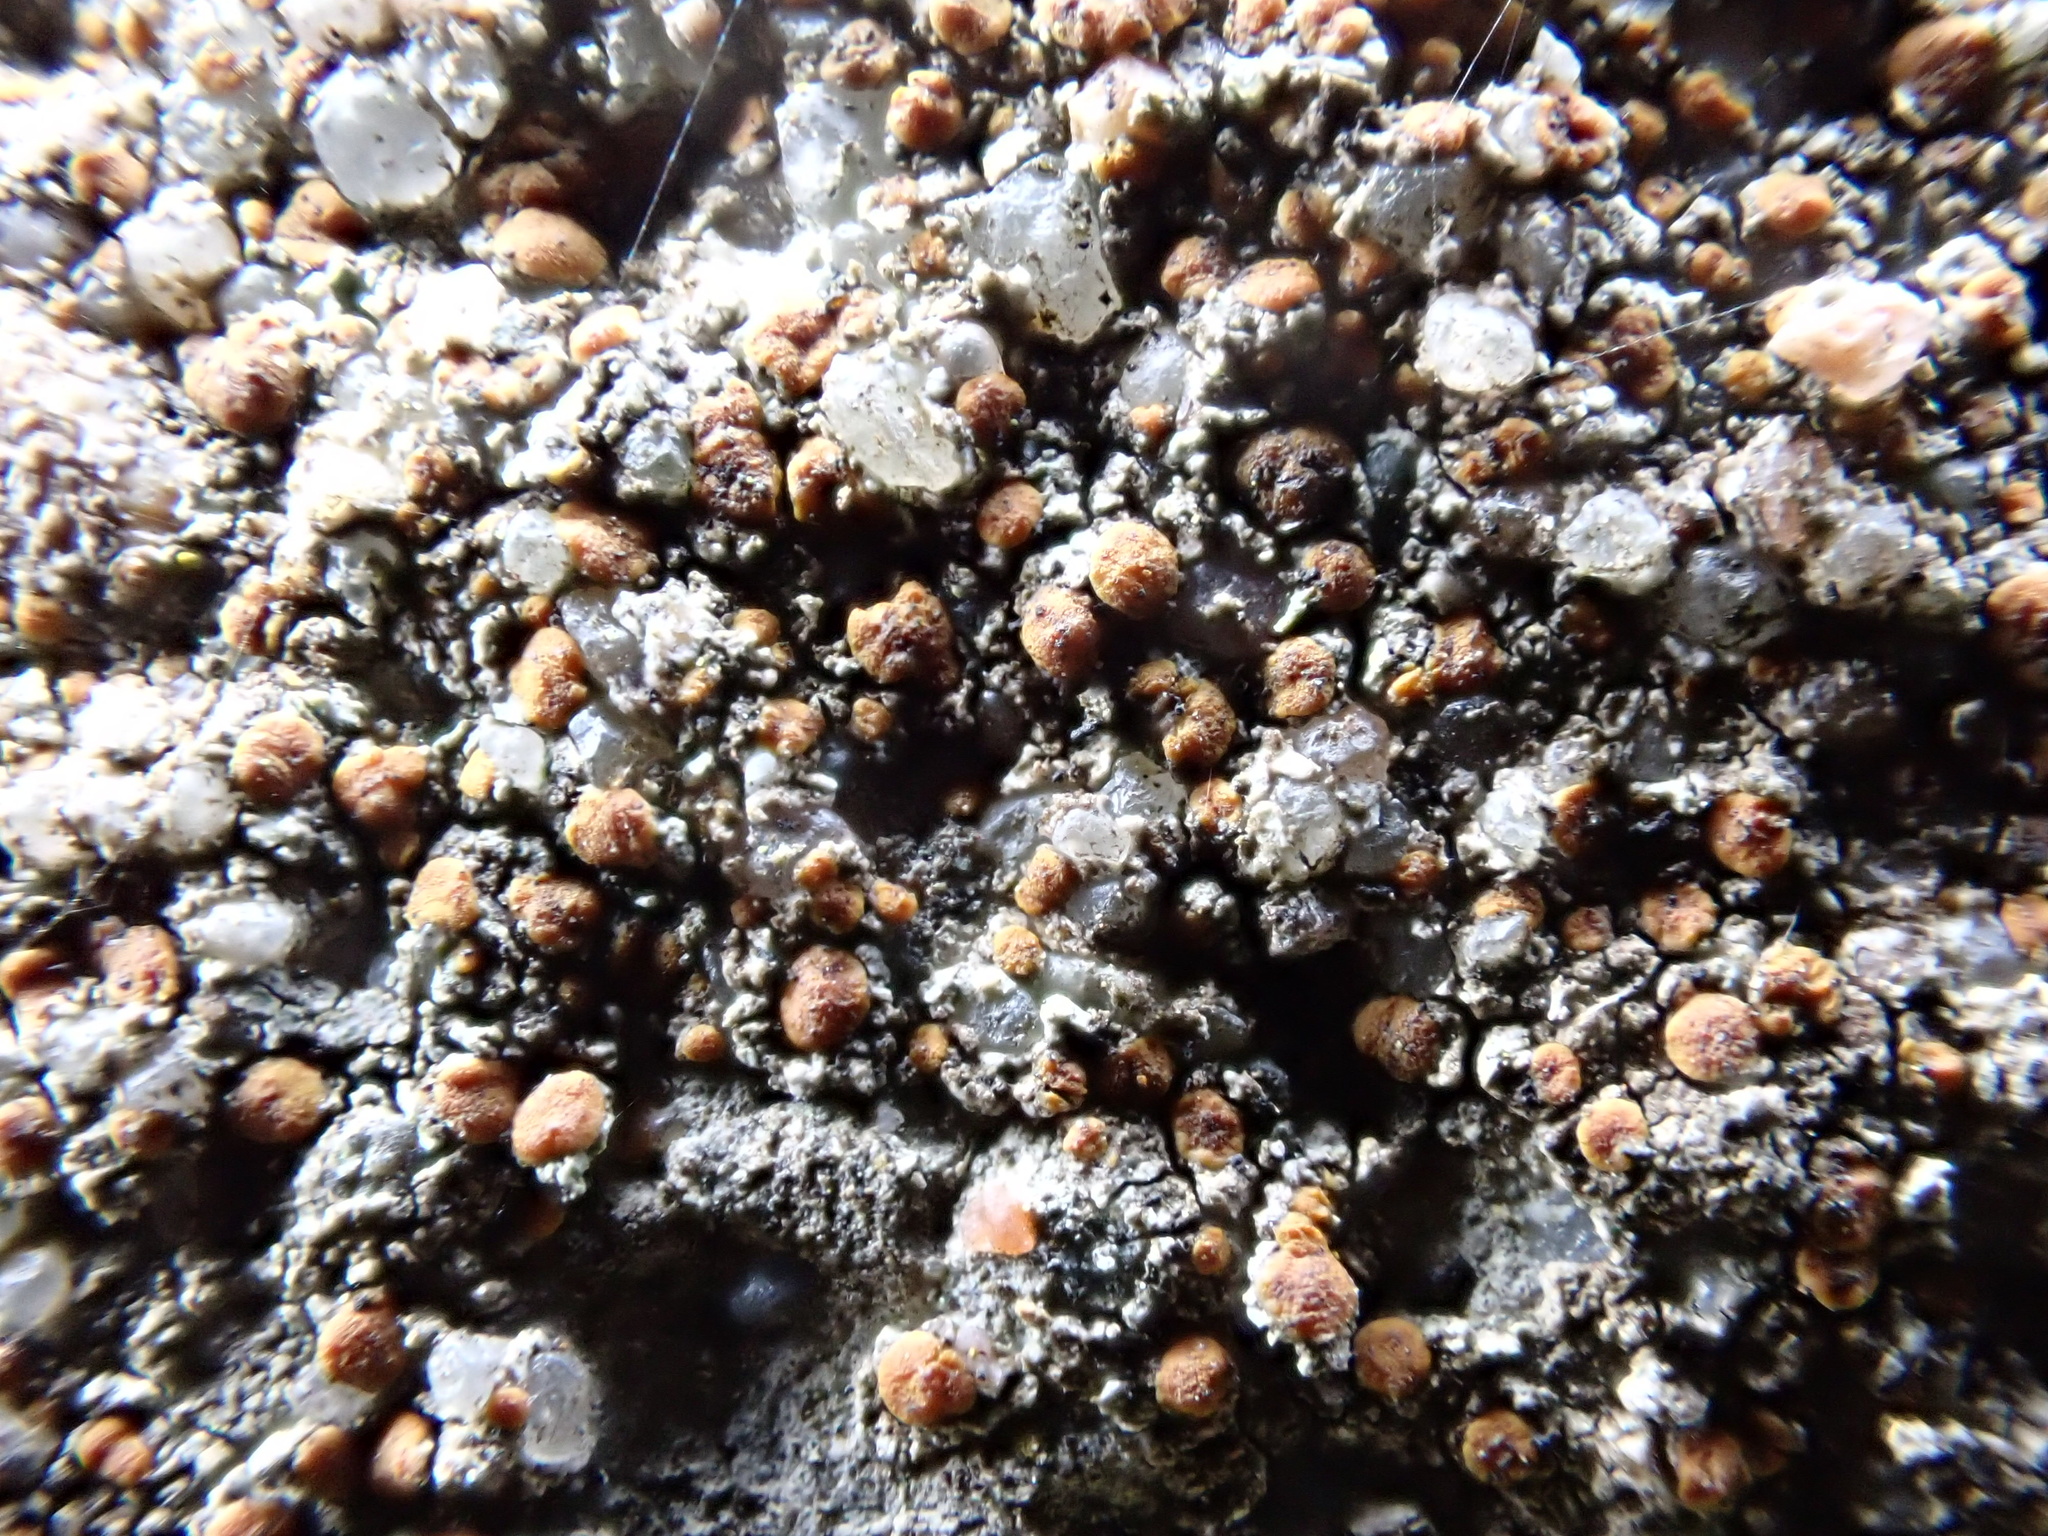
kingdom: Fungi
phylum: Ascomycota
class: Lecanoromycetes
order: Lecanorales
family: Psoraceae
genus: Protoblastenia
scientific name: Protoblastenia rupestris
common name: Chewing gum lichen
